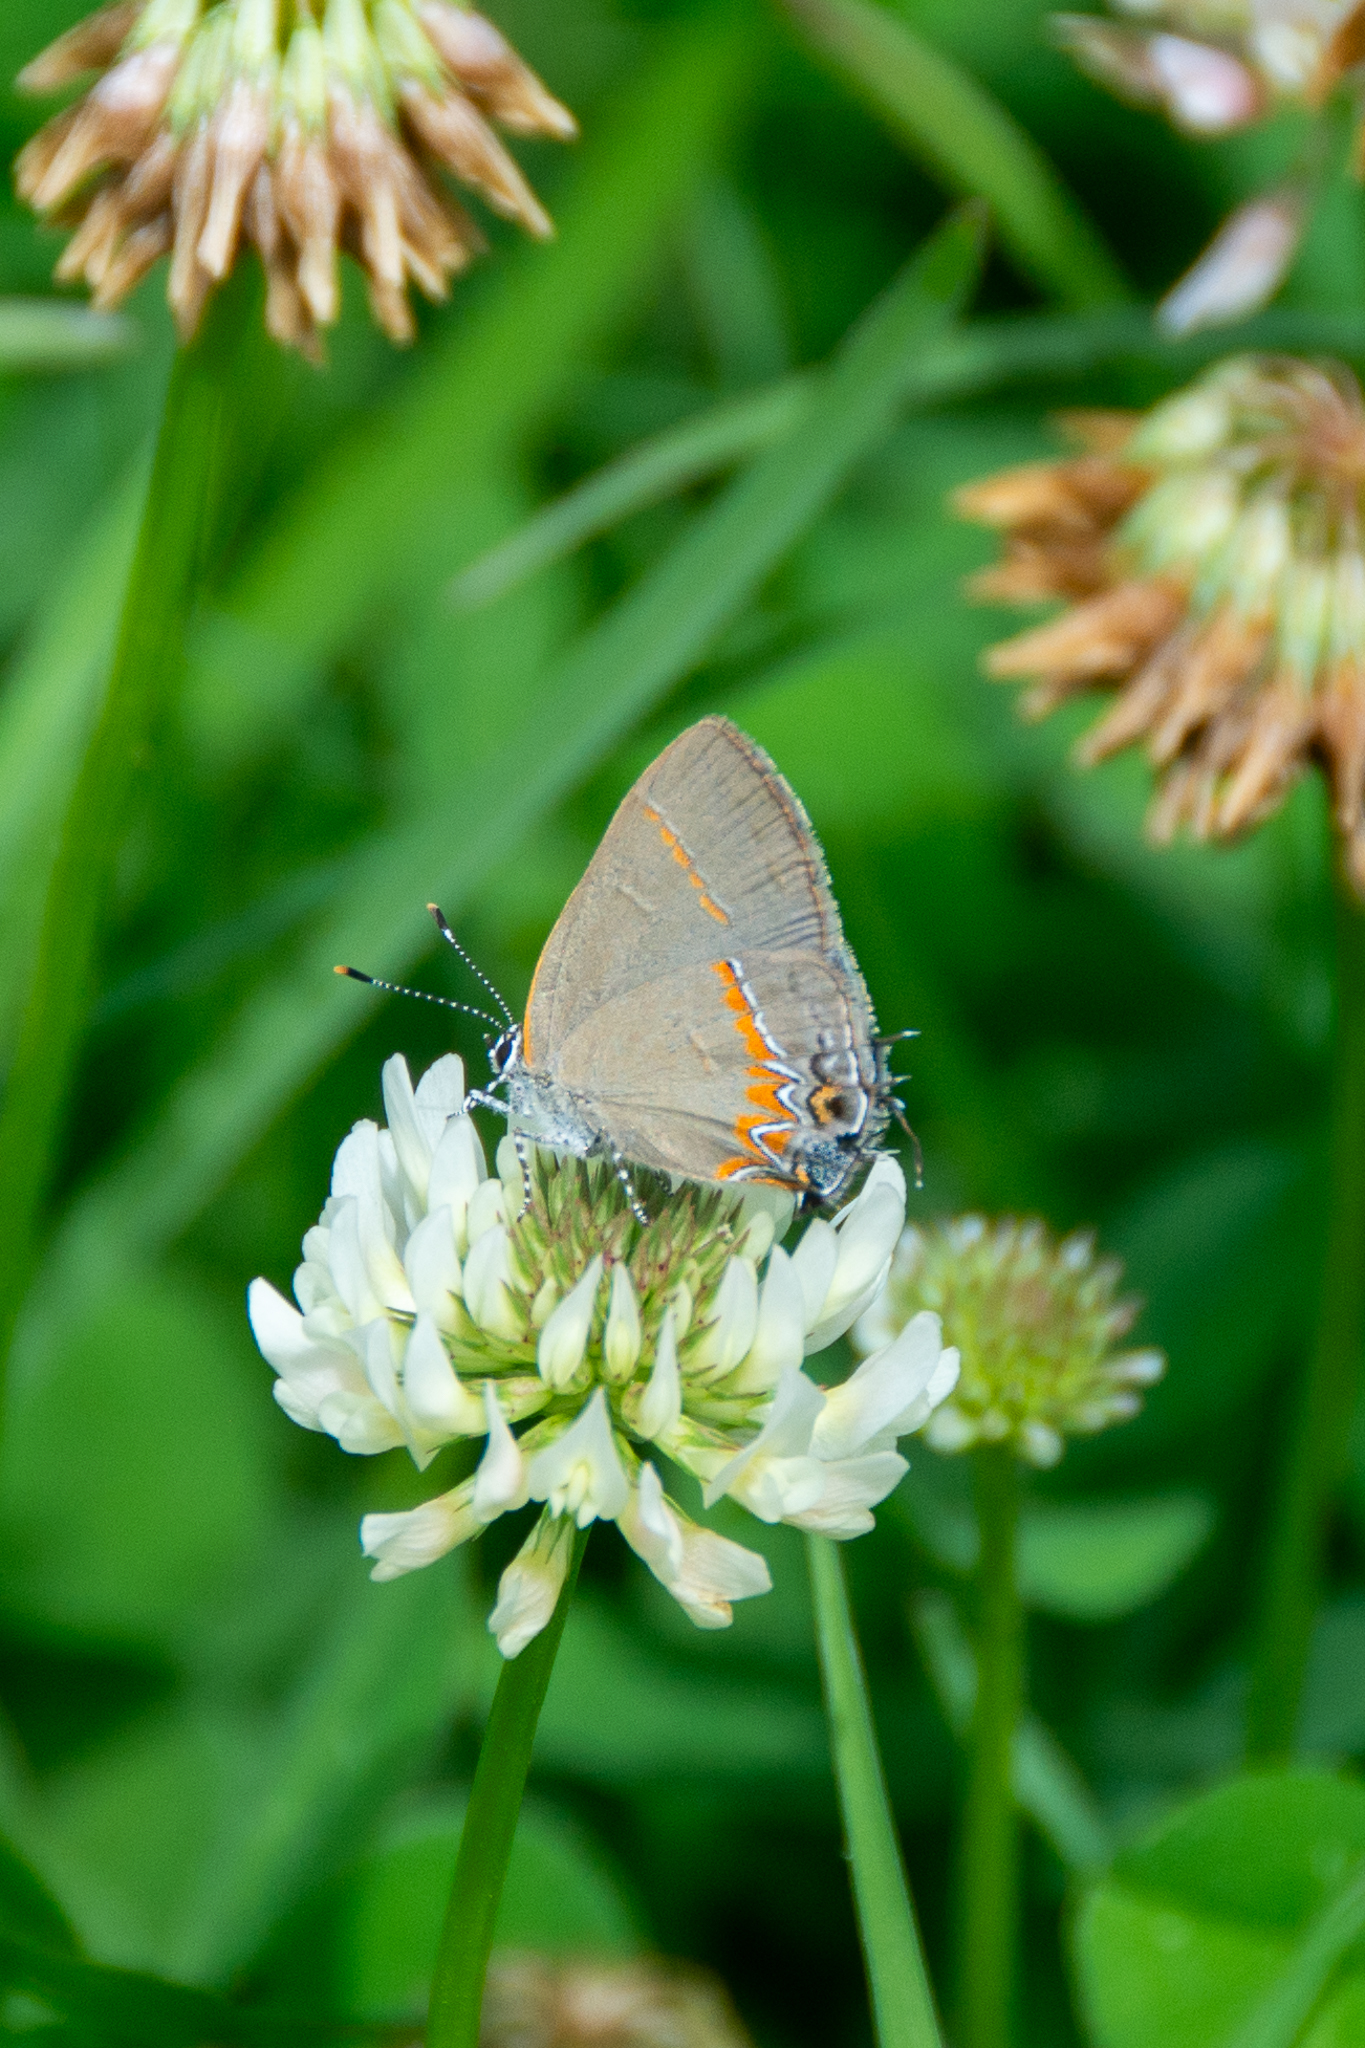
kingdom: Animalia
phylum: Arthropoda
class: Insecta
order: Lepidoptera
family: Lycaenidae
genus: Calycopis
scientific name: Calycopis cecrops
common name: Red-banded hairstreak
